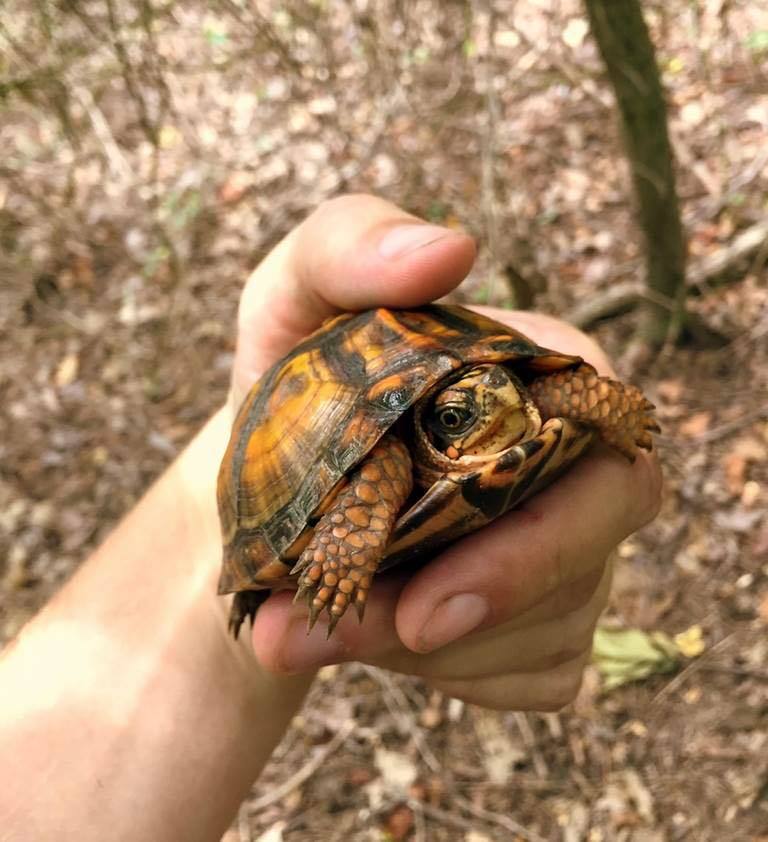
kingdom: Animalia
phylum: Chordata
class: Testudines
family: Emydidae
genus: Terrapene
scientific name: Terrapene carolina
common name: Common box turtle
